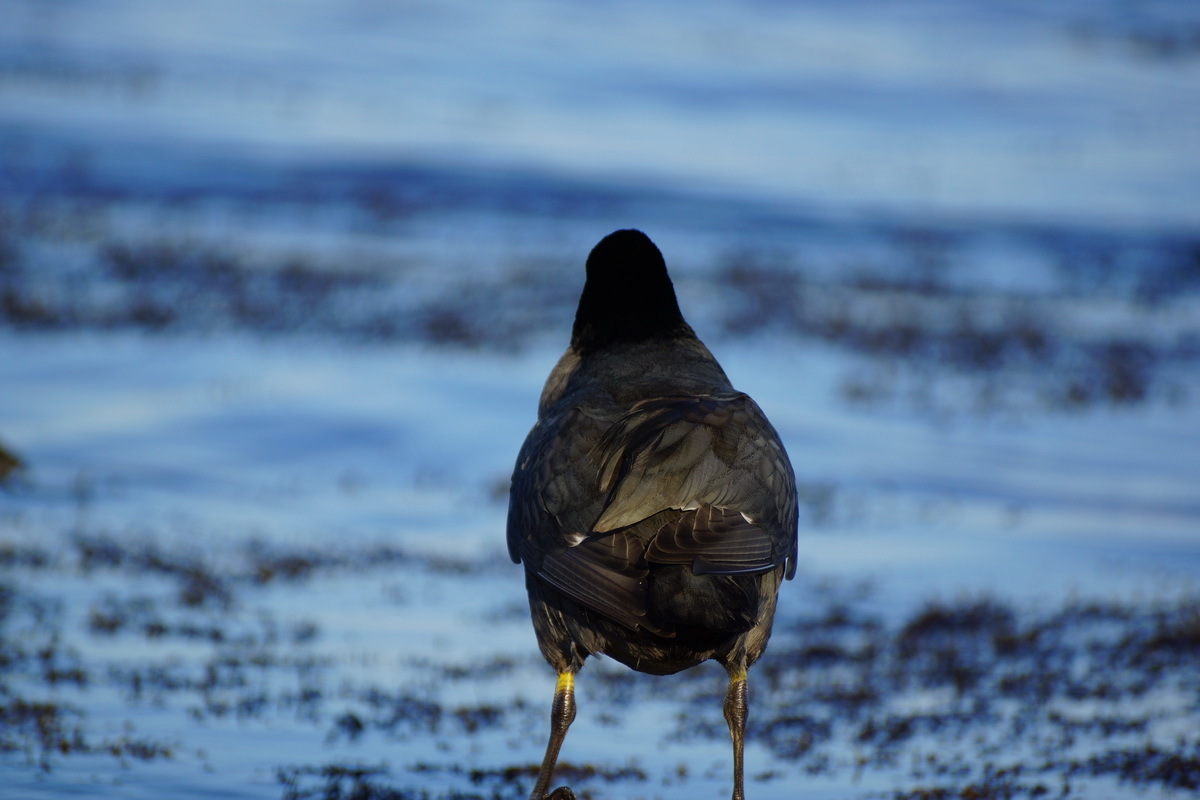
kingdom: Animalia
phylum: Chordata
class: Aves
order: Gruiformes
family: Rallidae
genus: Fulica
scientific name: Fulica atra
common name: Eurasian coot
